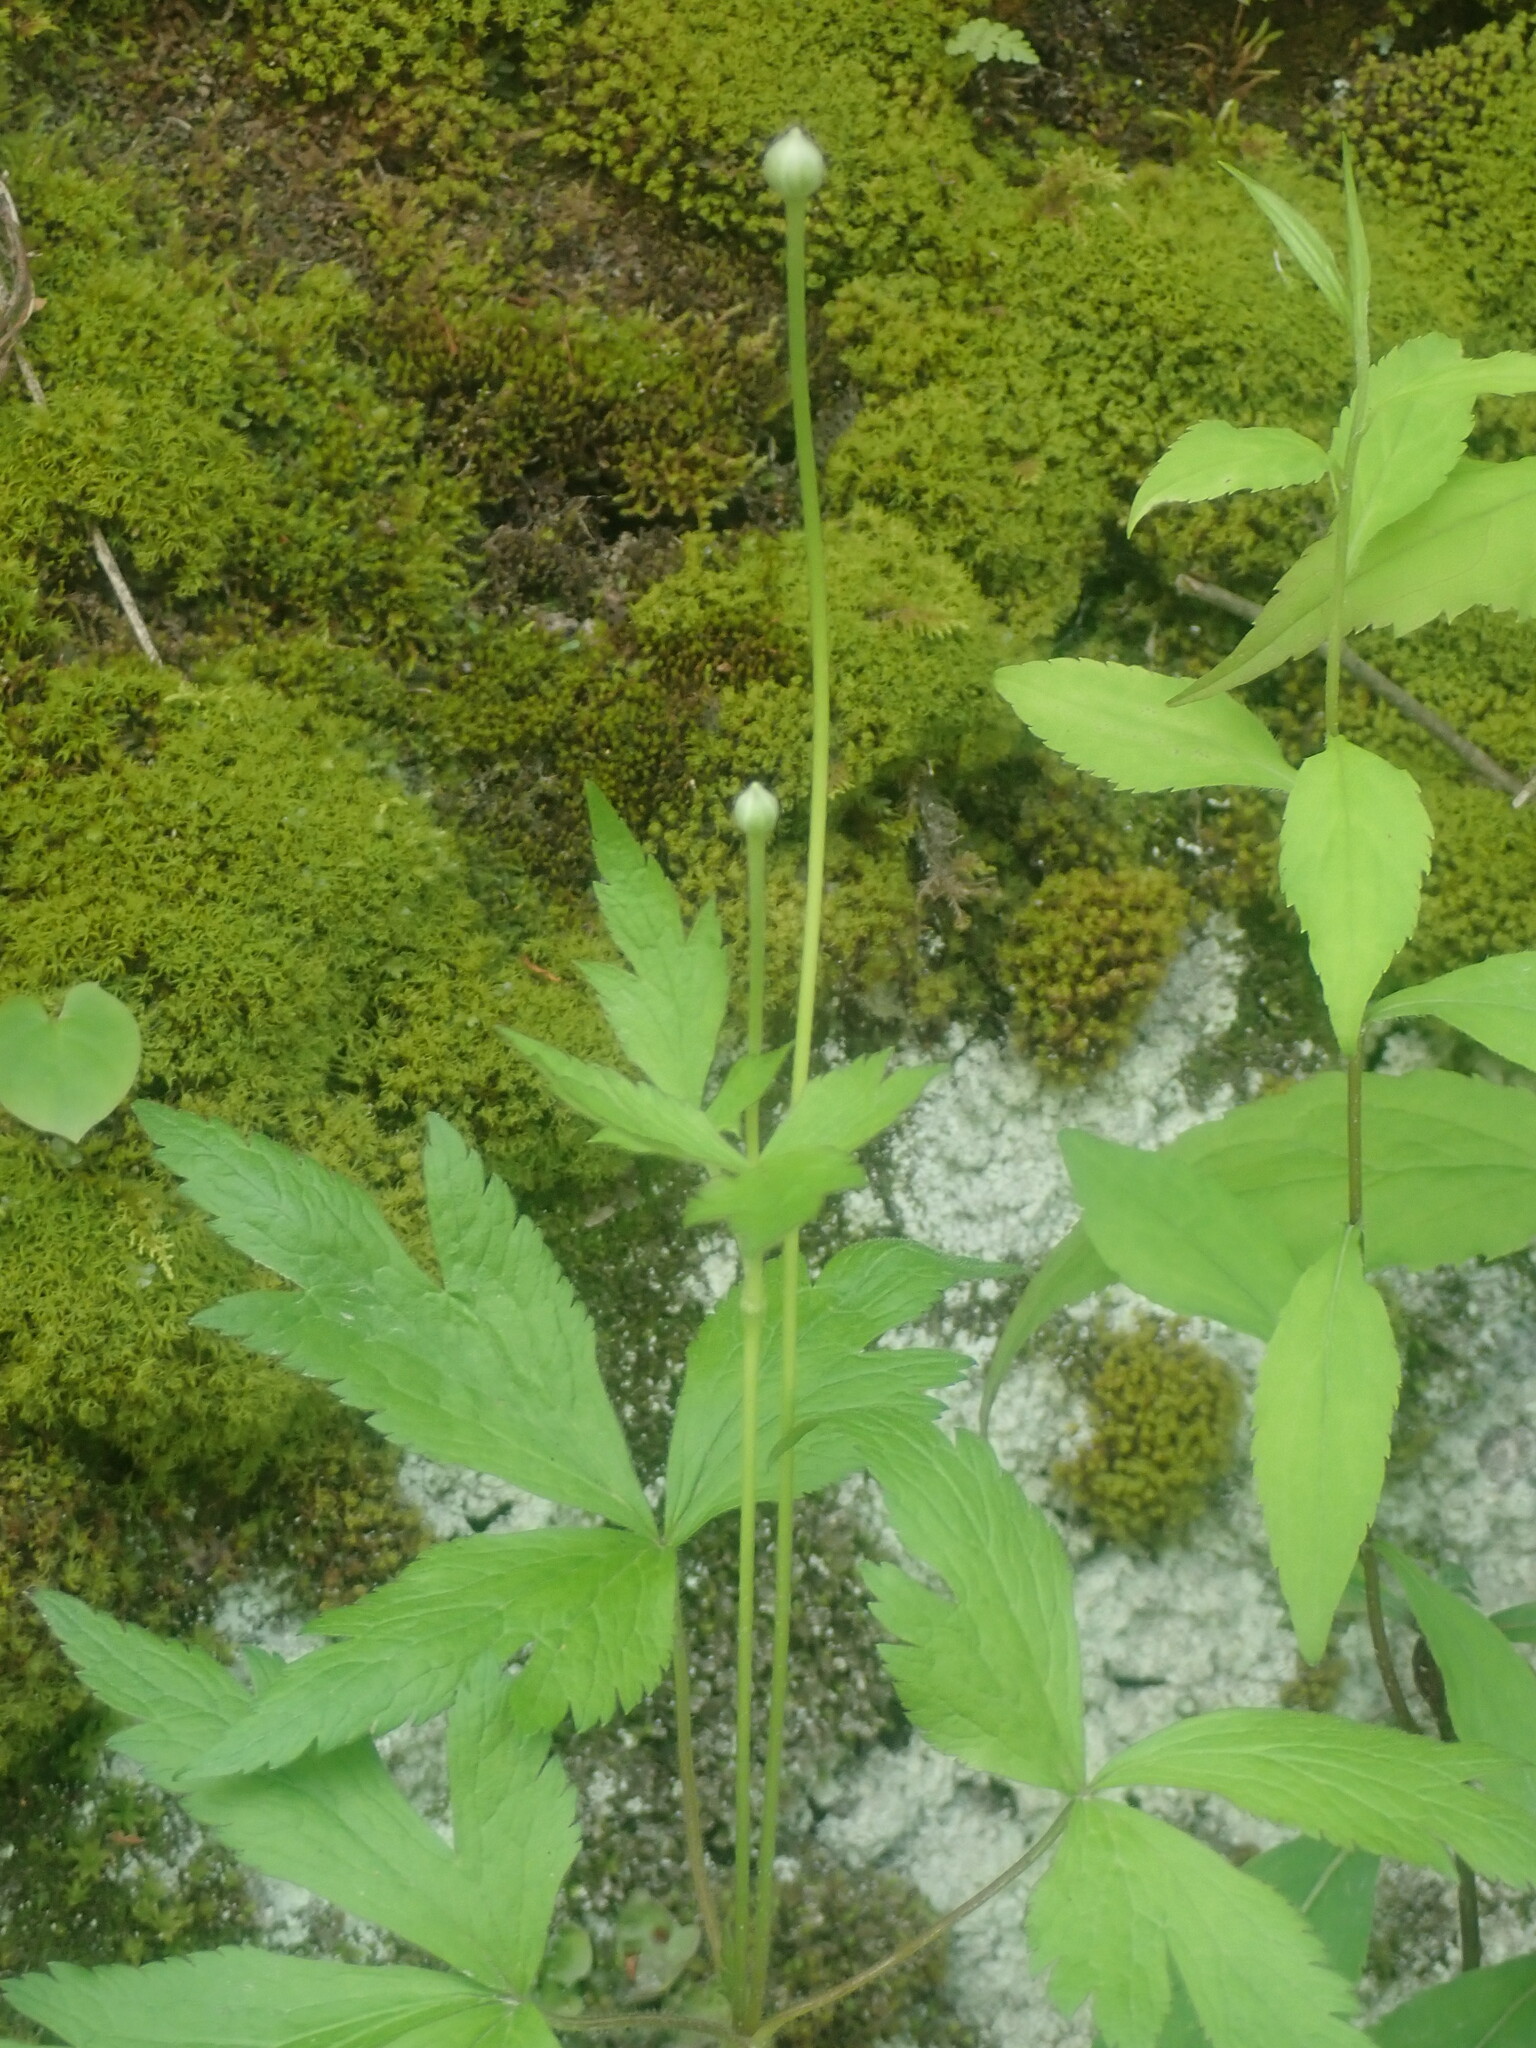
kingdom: Plantae
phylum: Tracheophyta
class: Magnoliopsida
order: Ranunculales
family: Ranunculaceae
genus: Anemone
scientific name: Anemone virginiana
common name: Tall anemone
